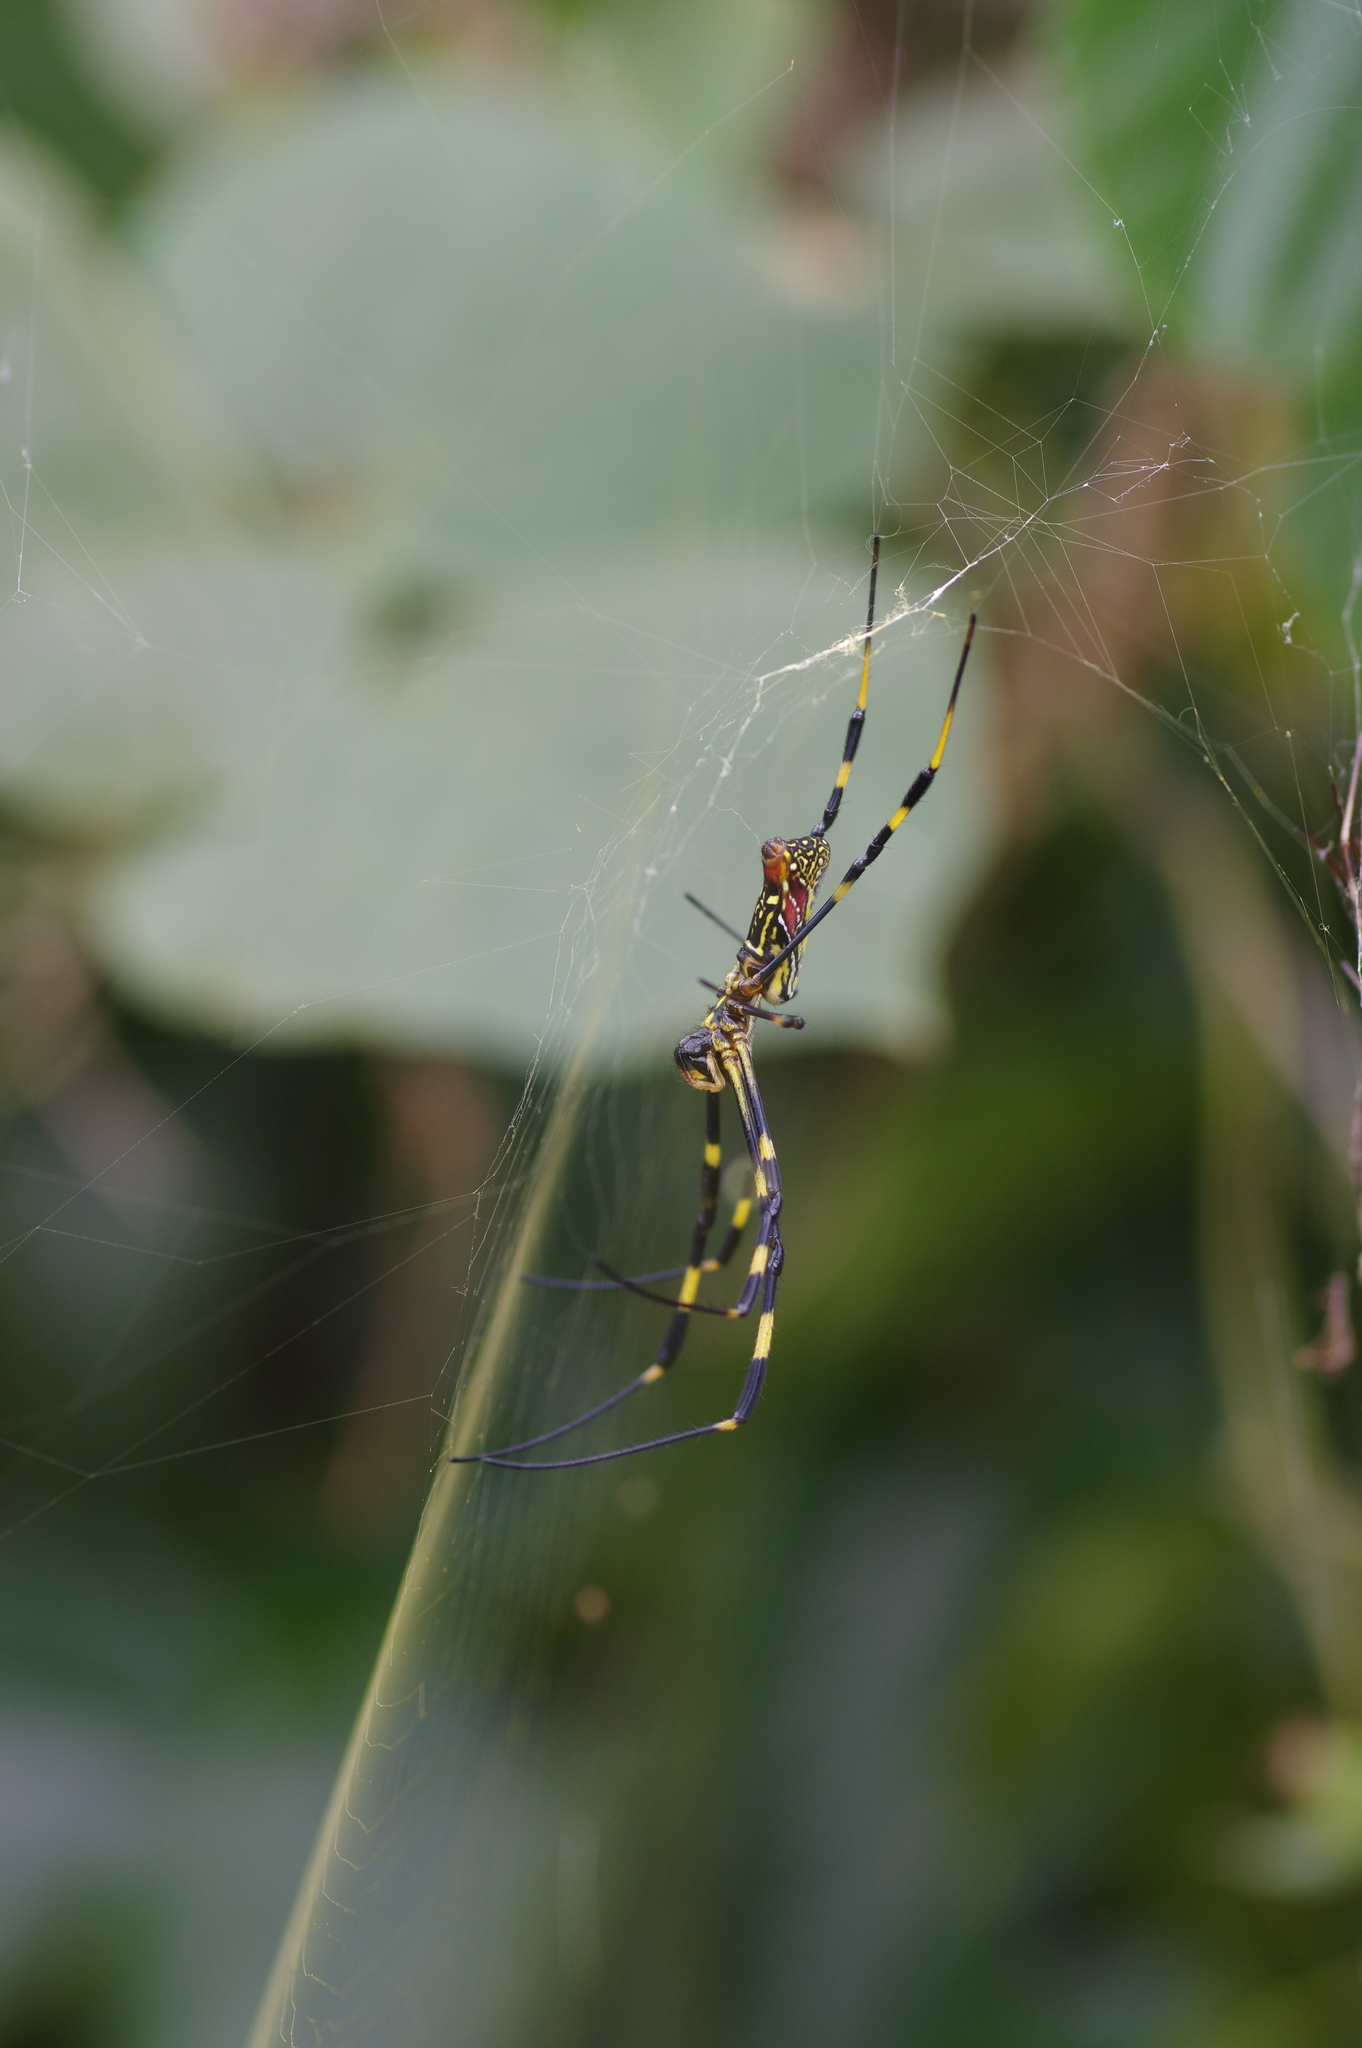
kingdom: Animalia
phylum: Arthropoda
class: Arachnida
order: Araneae
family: Araneidae
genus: Trichonephila
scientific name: Trichonephila clavata
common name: Jorō spider
